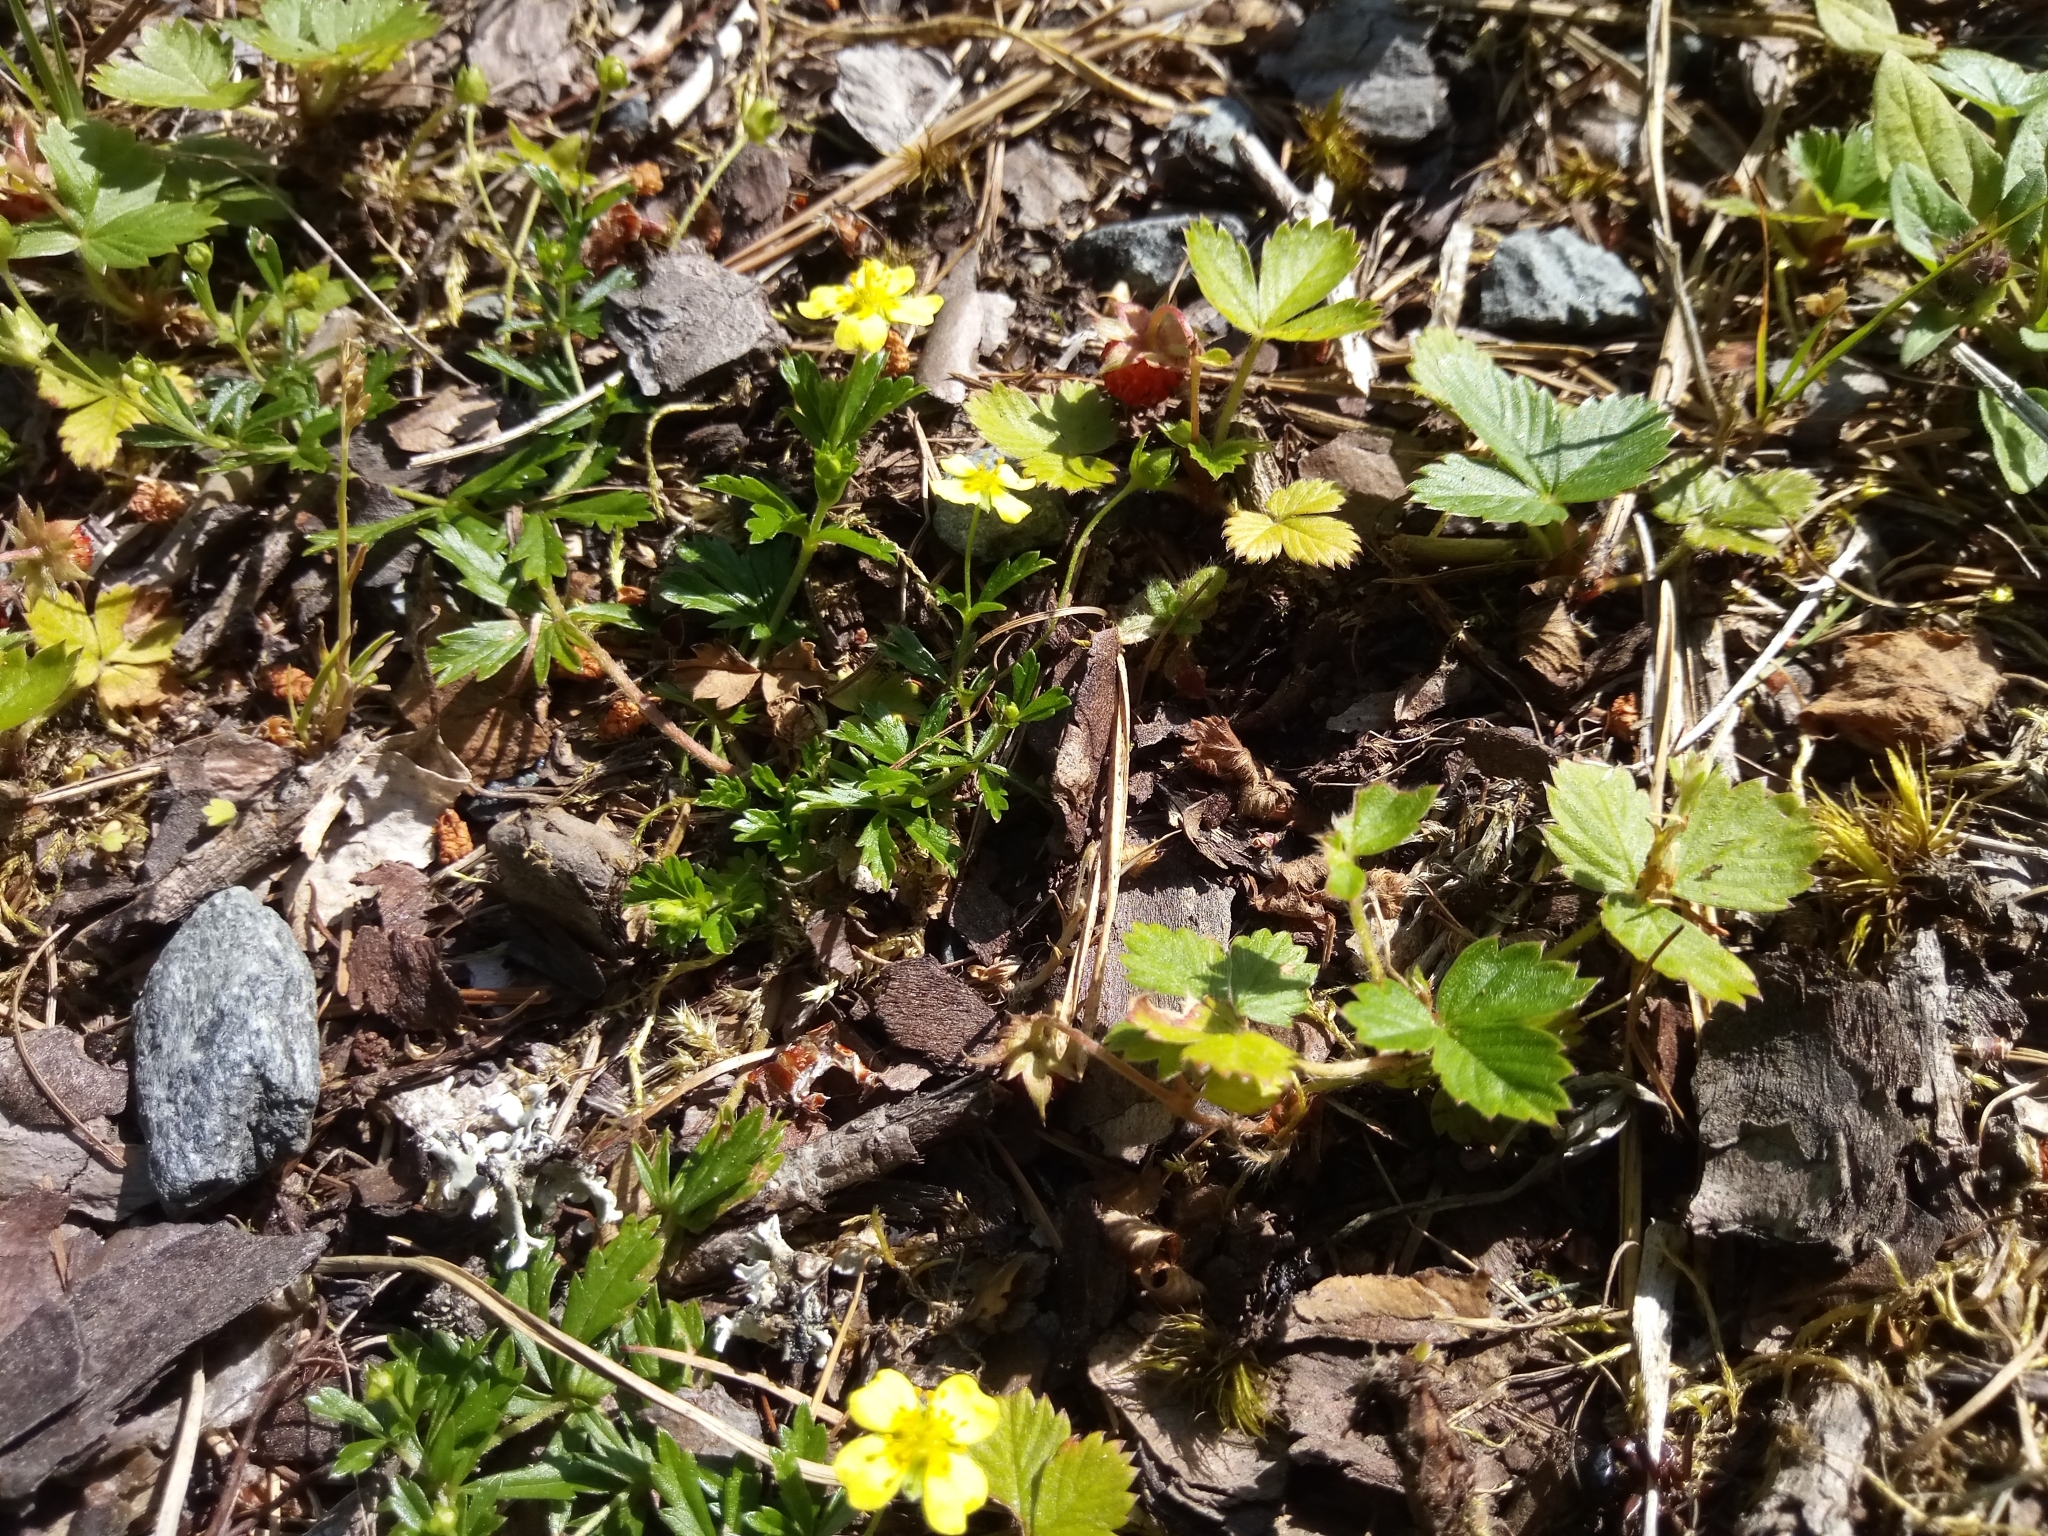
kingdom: Plantae
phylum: Tracheophyta
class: Magnoliopsida
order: Rosales
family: Rosaceae
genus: Potentilla
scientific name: Potentilla erecta
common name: Tormentil
